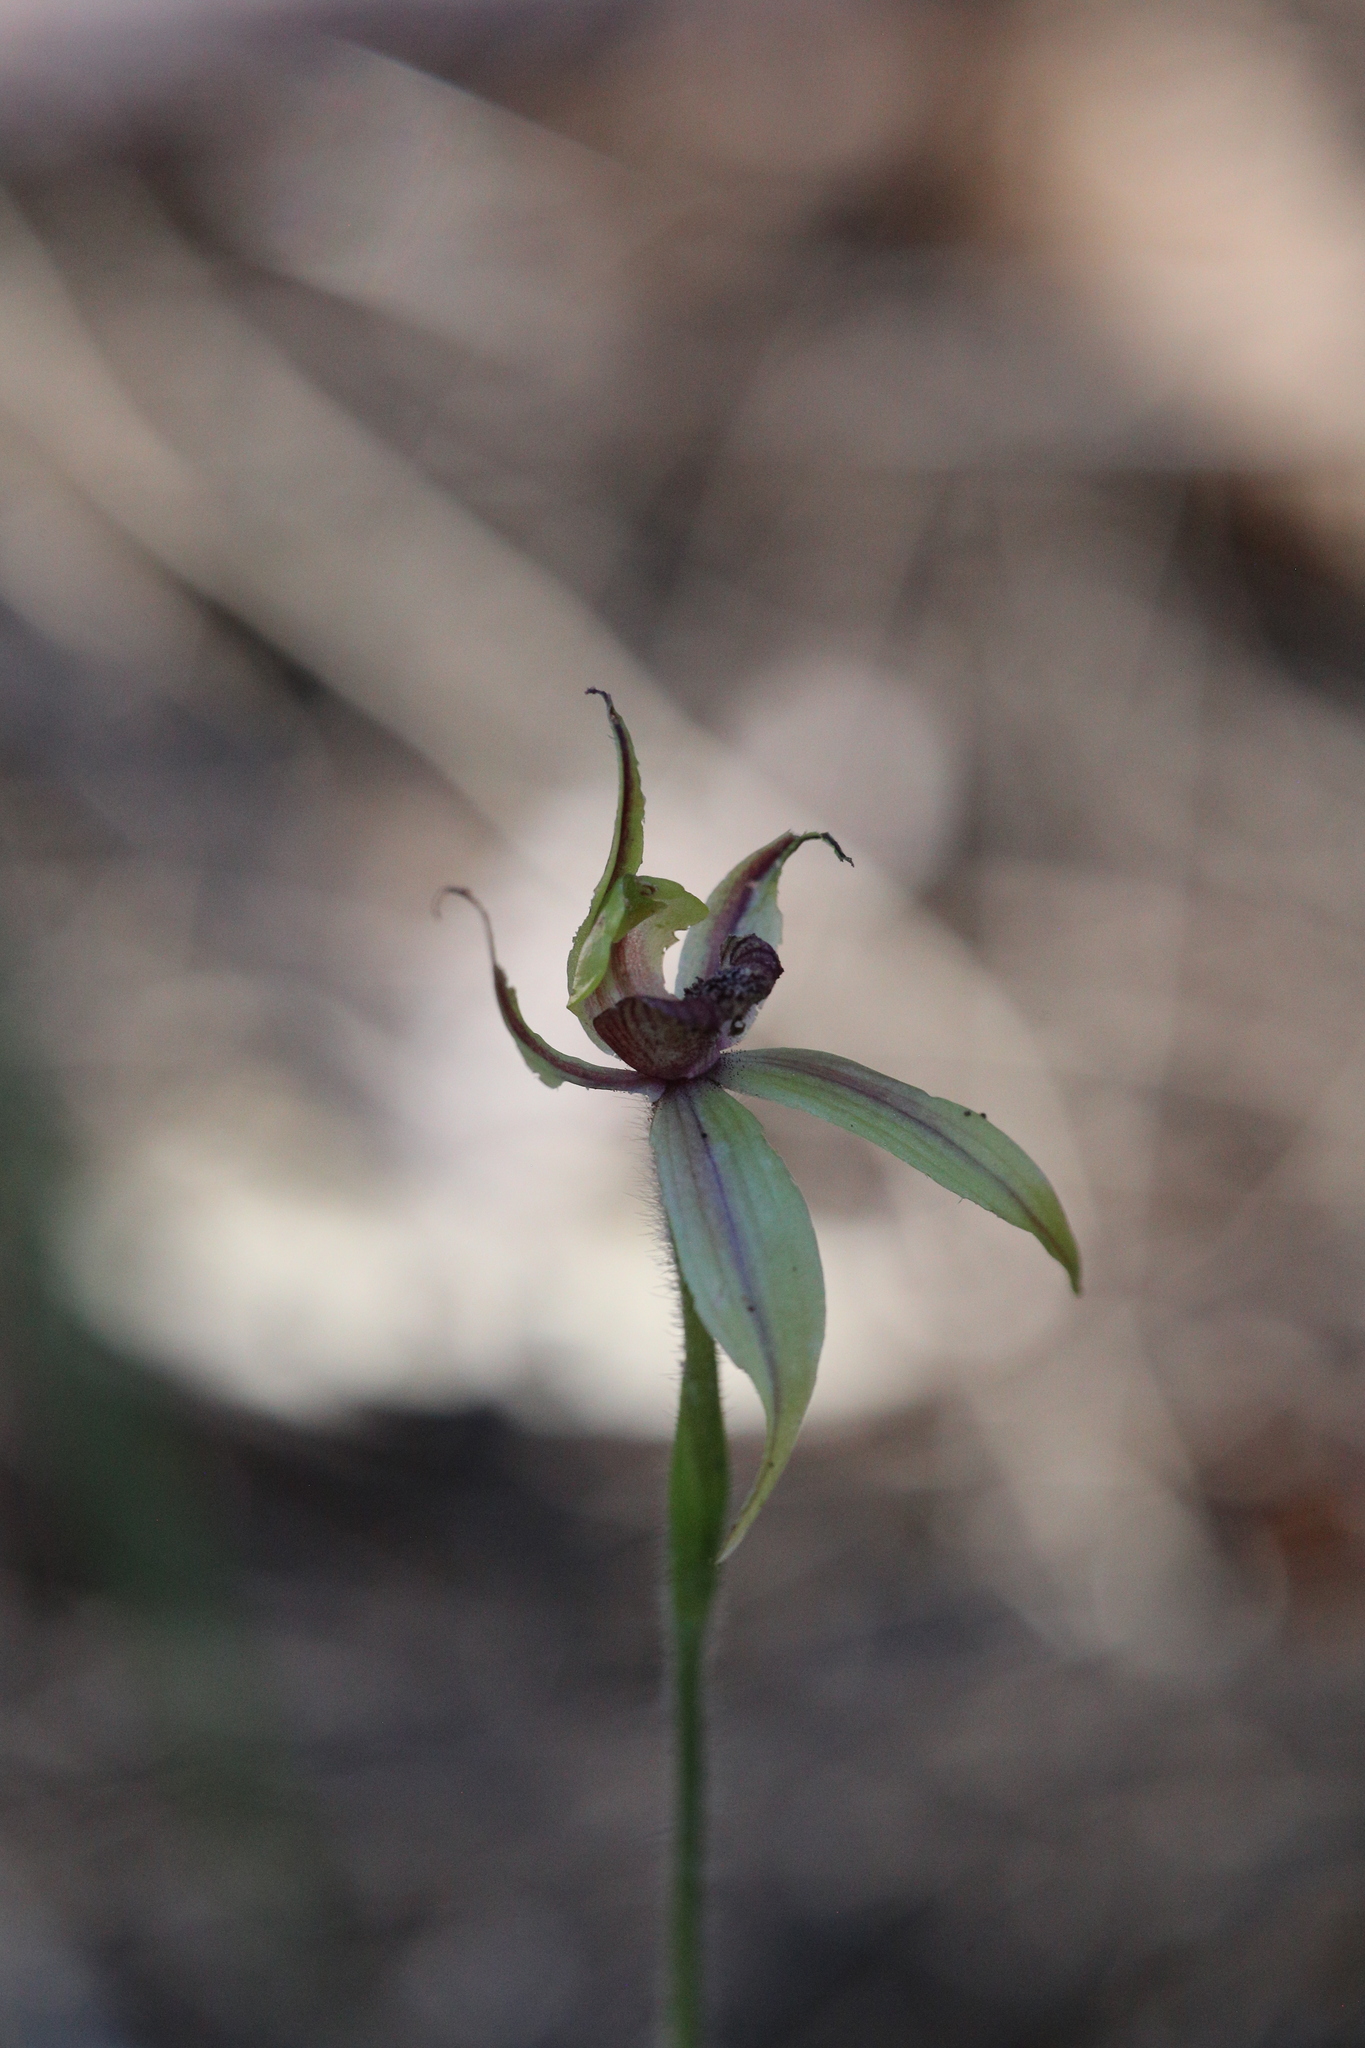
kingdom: Plantae
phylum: Tracheophyta
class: Liliopsida
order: Asparagales
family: Orchidaceae
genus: Caladenia
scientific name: Caladenia macrostylis
